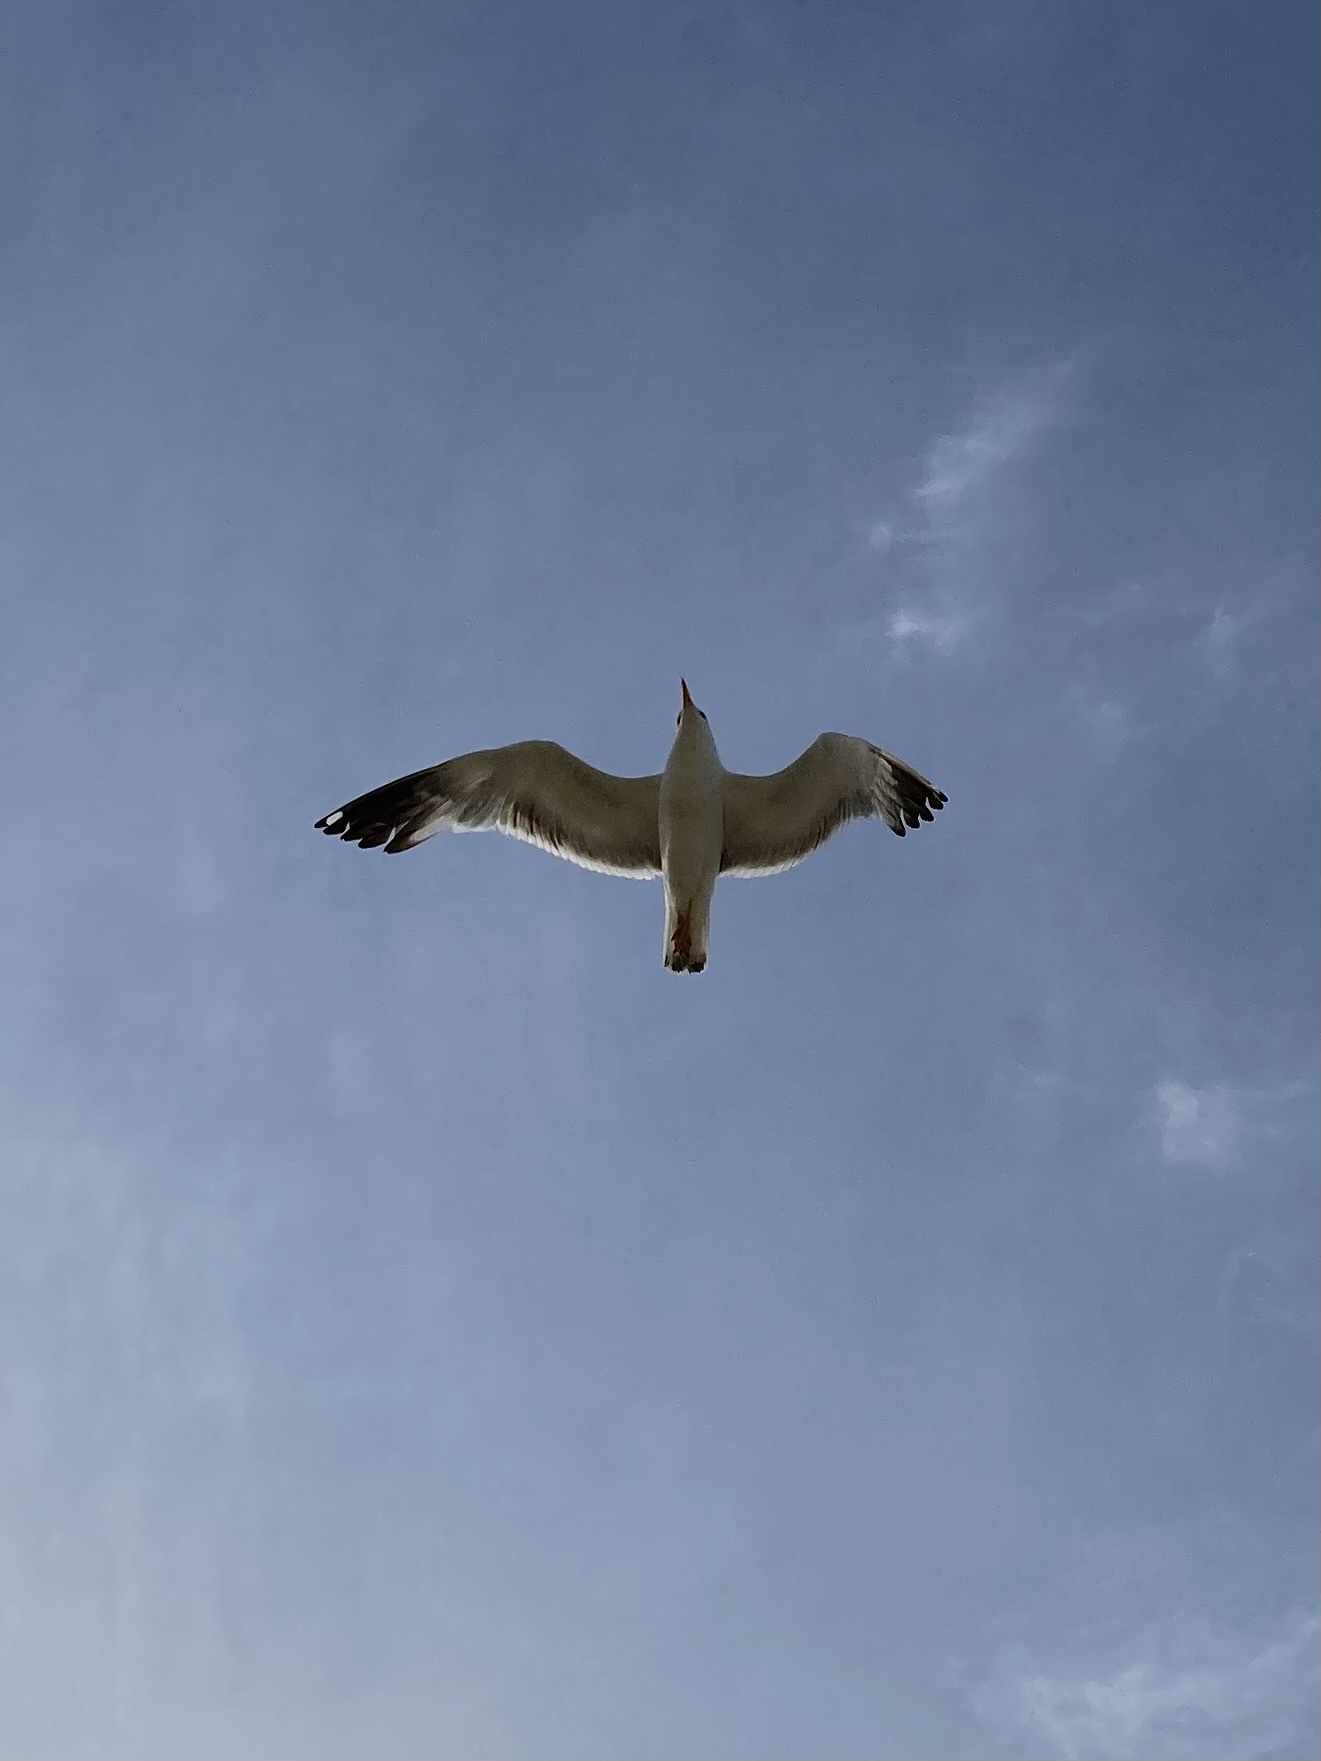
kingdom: Animalia
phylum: Chordata
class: Aves
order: Charadriiformes
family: Laridae
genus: Larus
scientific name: Larus michahellis
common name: Yellow-legged gull
